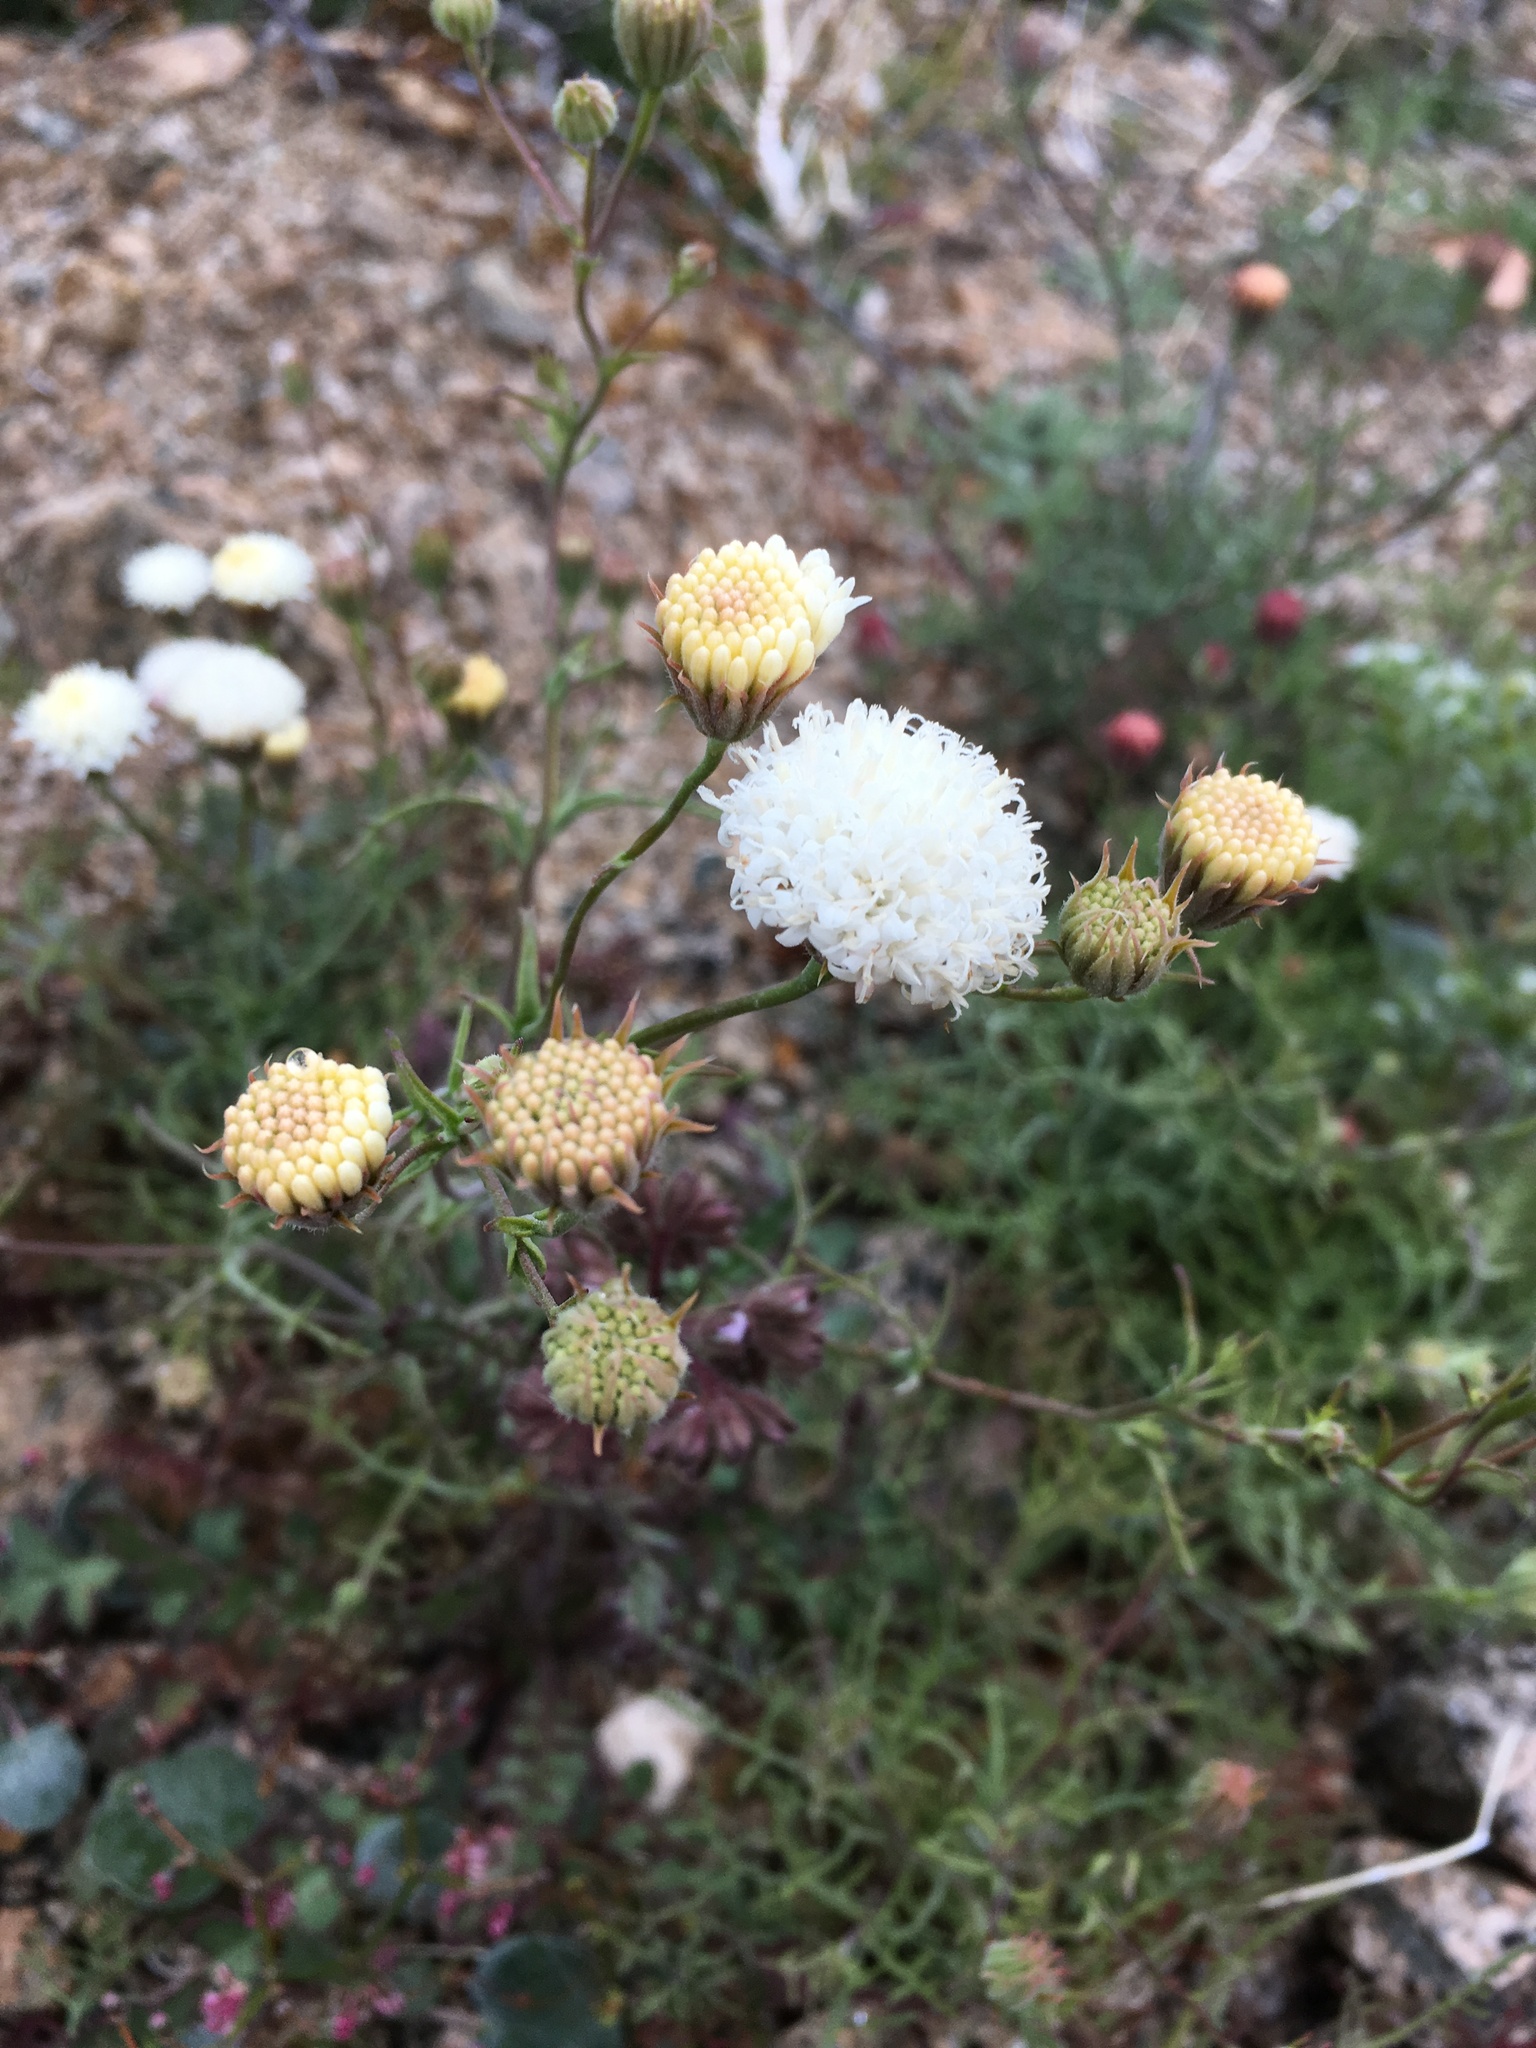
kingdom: Plantae
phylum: Tracheophyta
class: Magnoliopsida
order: Asterales
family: Asteraceae
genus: Chaenactis
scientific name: Chaenactis carphoclinia
